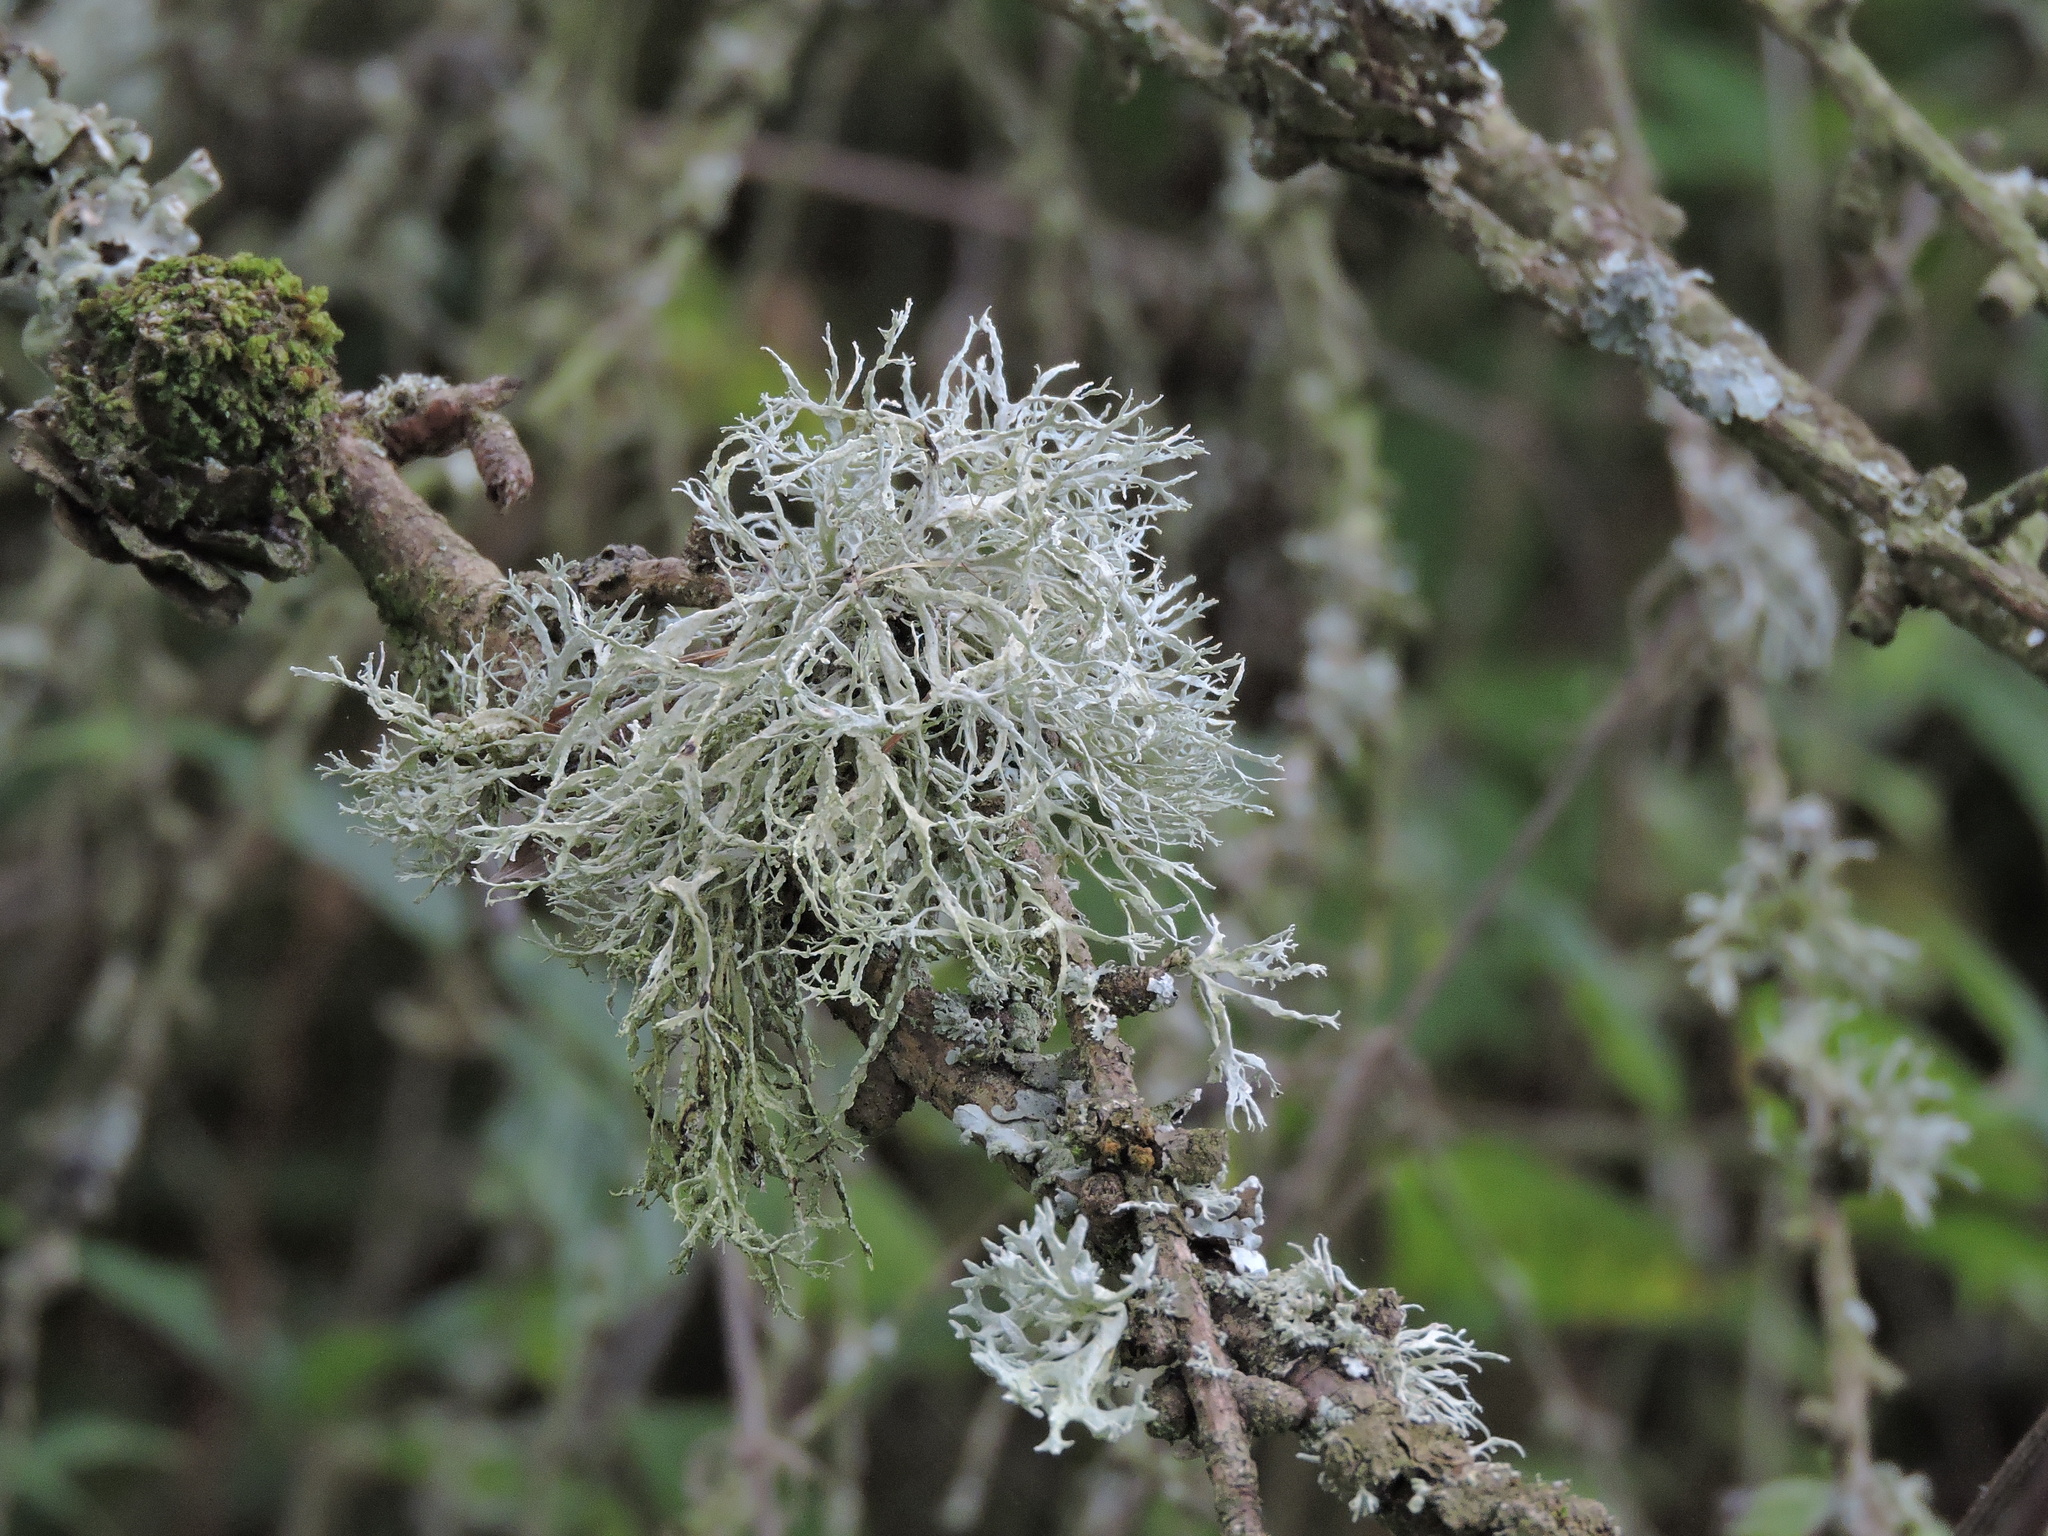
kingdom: Fungi
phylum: Ascomycota
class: Lecanoromycetes
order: Lecanorales
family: Ramalinaceae
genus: Ramalina
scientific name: Ramalina farinacea
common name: Farinose cartilage lichen
